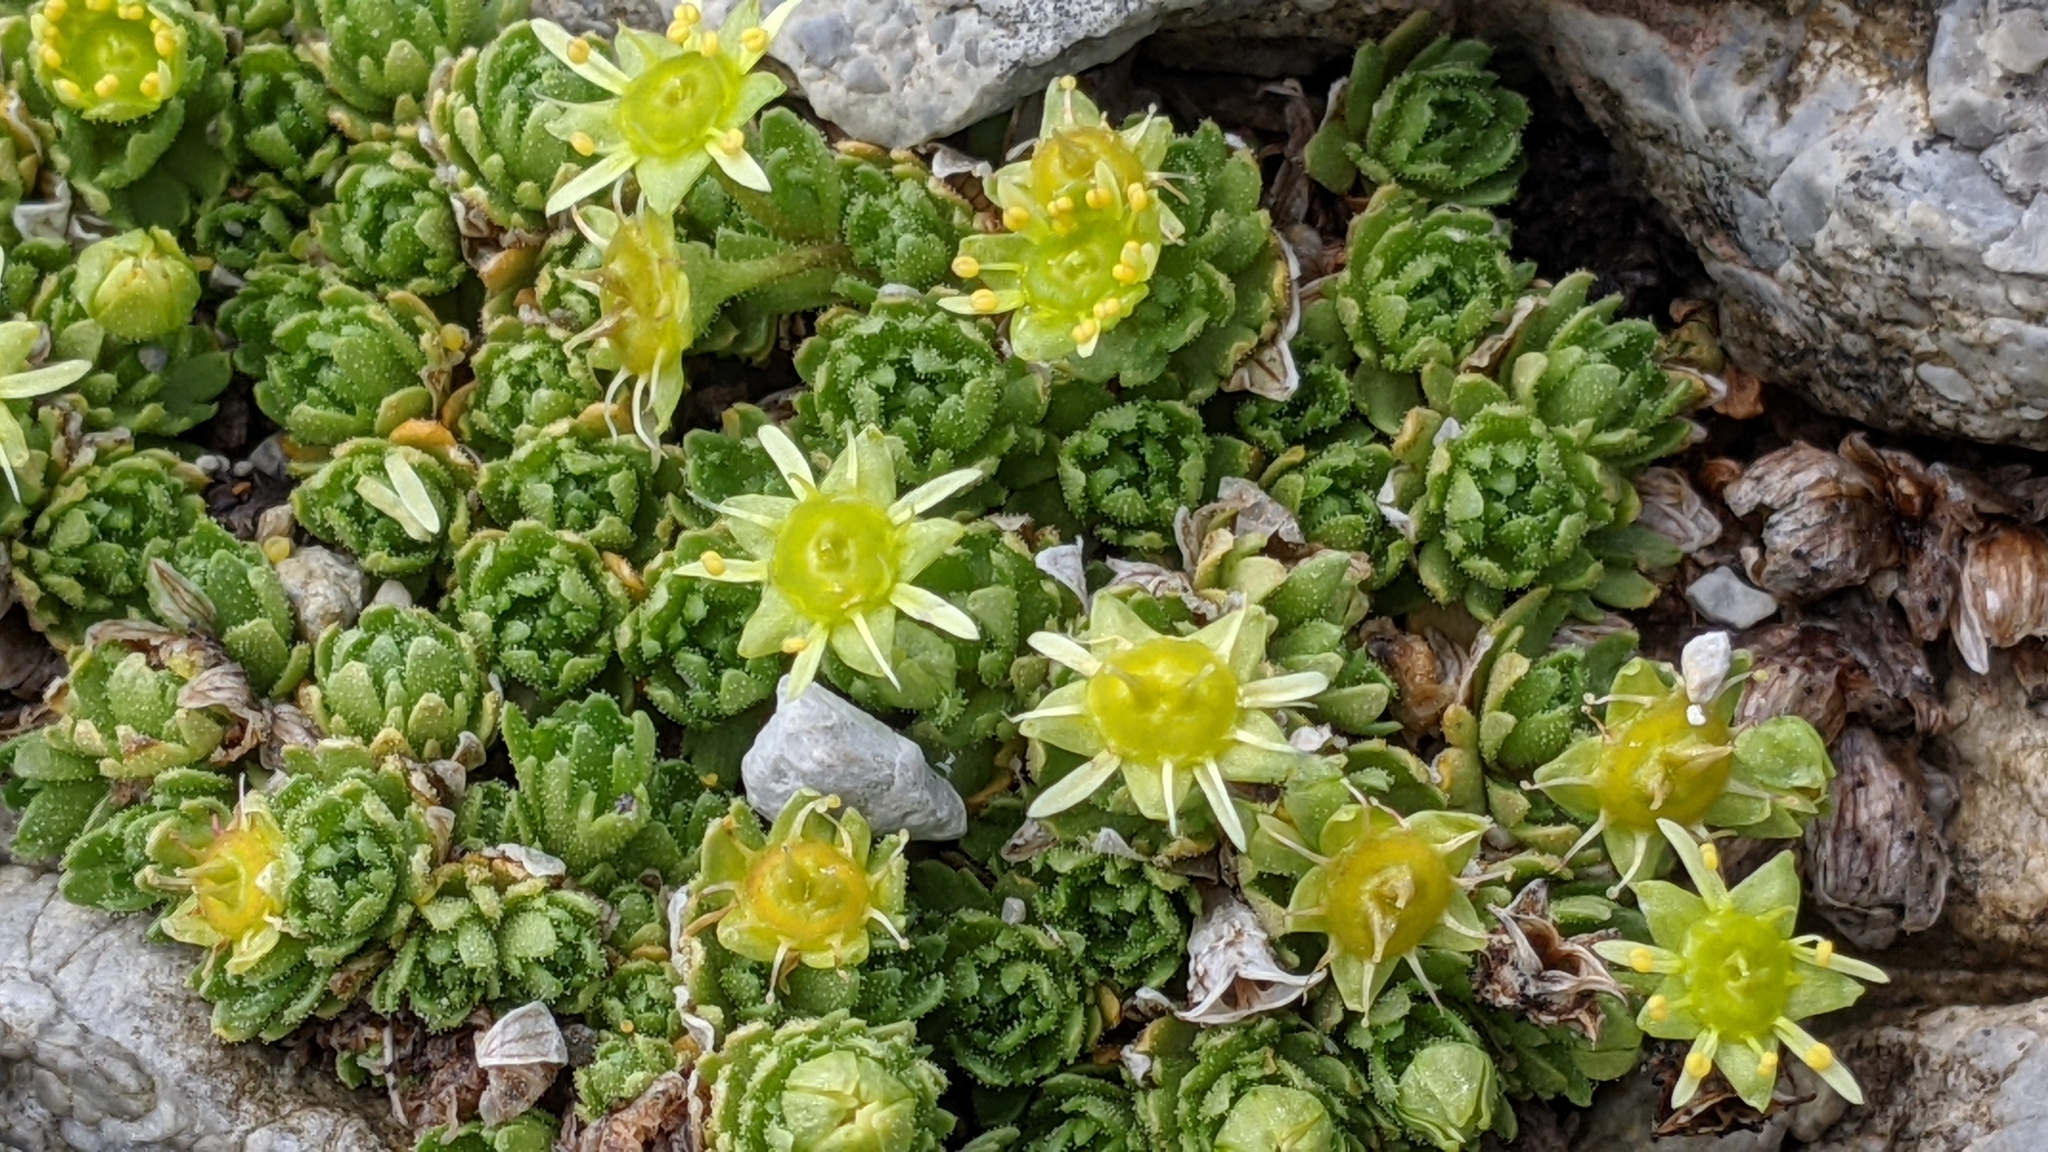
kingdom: Plantae
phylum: Tracheophyta
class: Magnoliopsida
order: Saxifragales
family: Saxifragaceae
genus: Saxifraga
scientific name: Saxifraga aphylla
